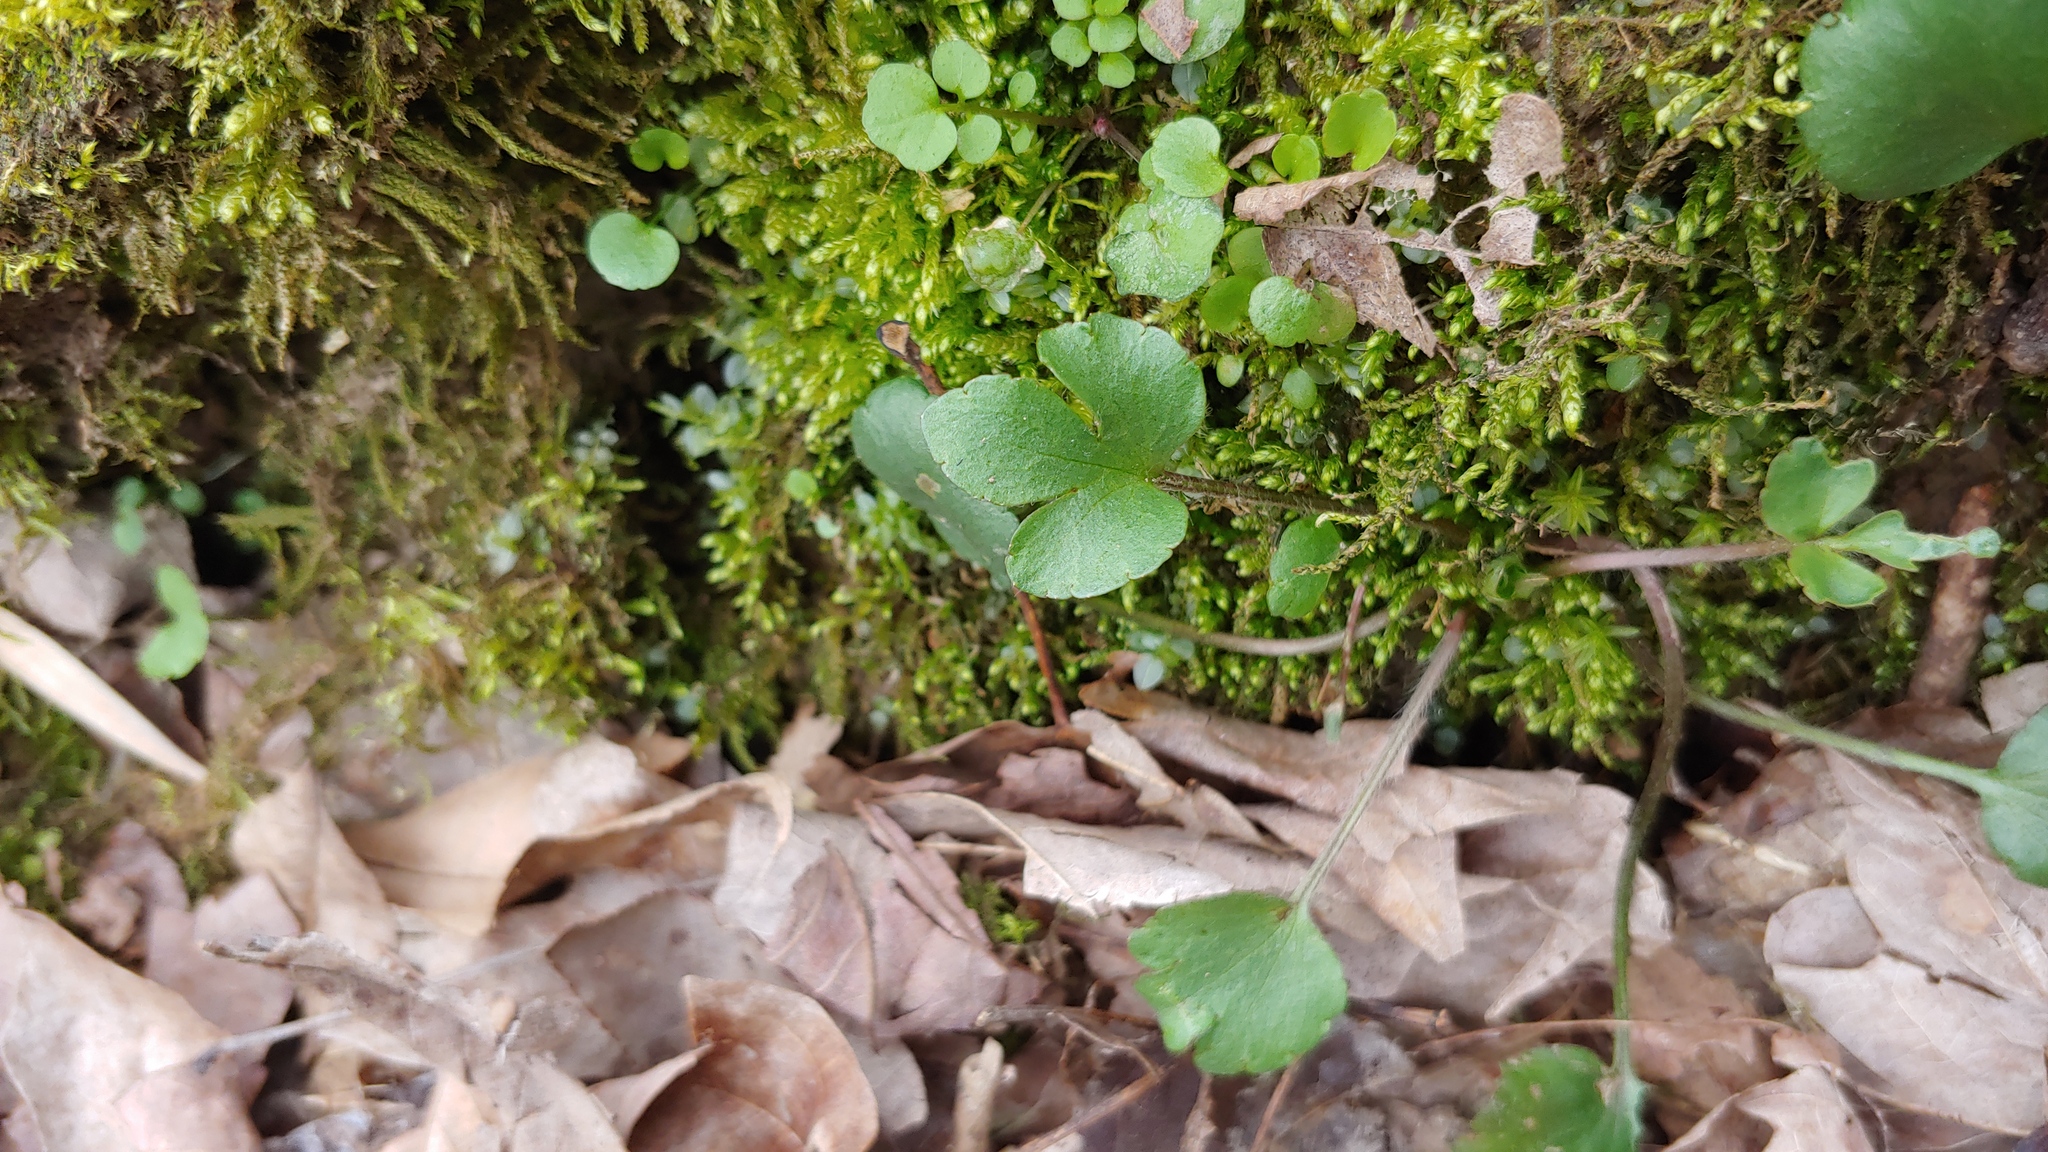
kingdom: Plantae
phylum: Tracheophyta
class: Magnoliopsida
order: Ranunculales
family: Ranunculaceae
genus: Ranunculus
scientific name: Ranunculus micranthus
